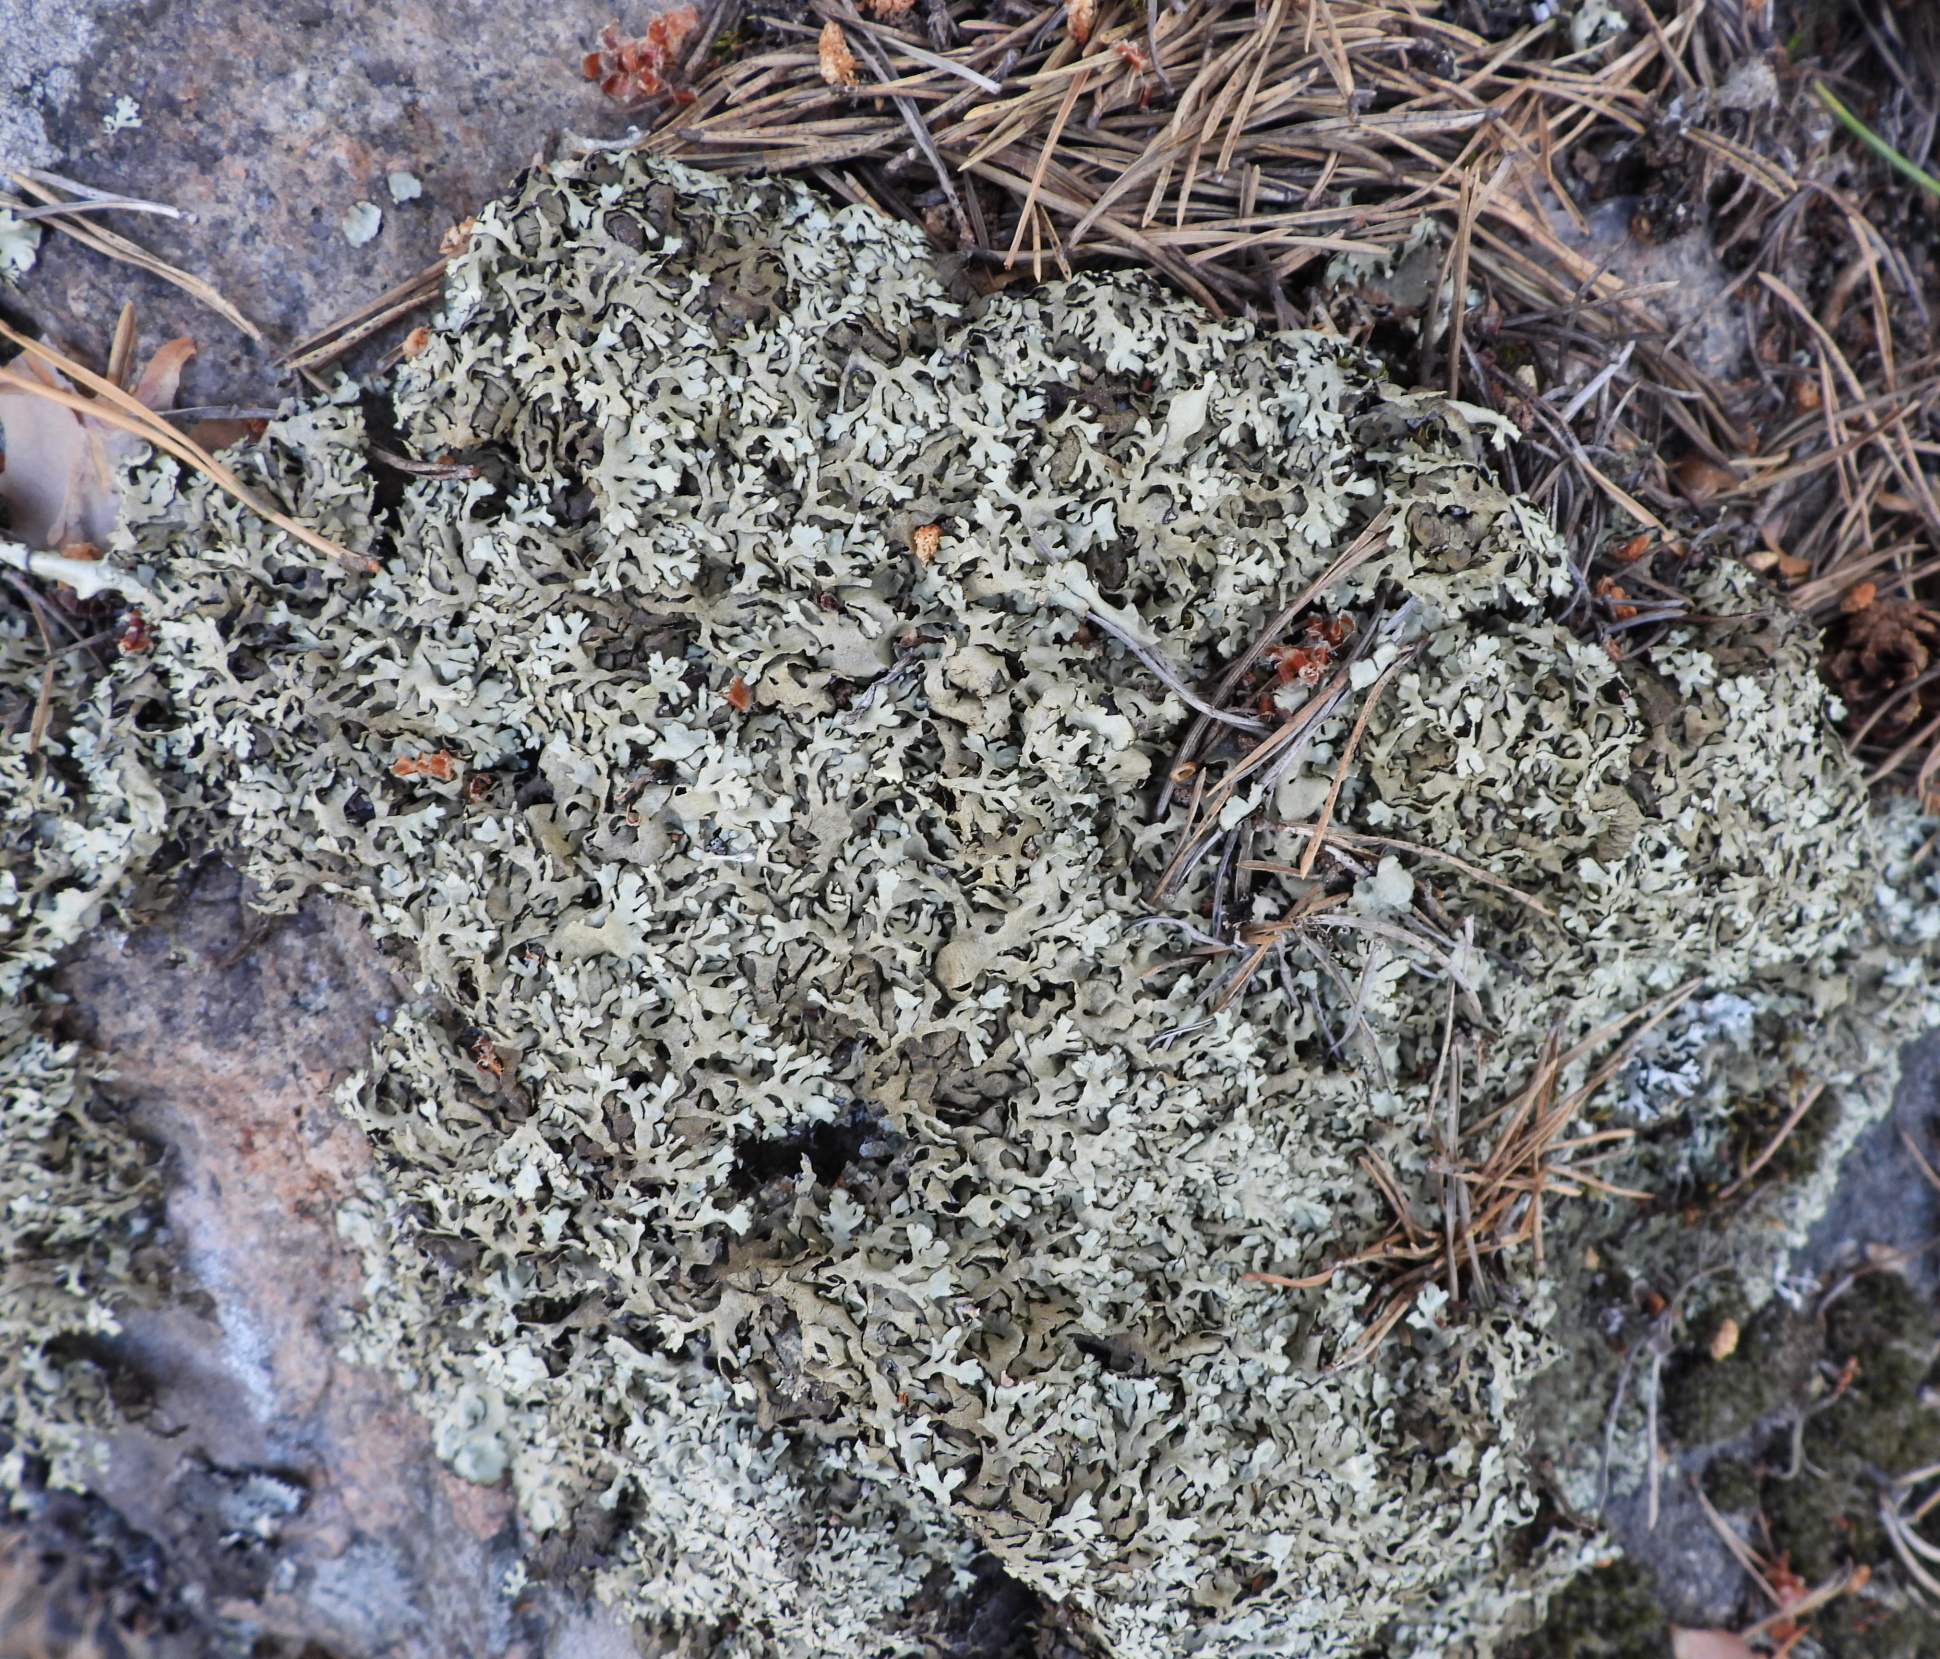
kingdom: Fungi
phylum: Ascomycota
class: Lecanoromycetes
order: Lecanorales
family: Parmeliaceae
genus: Xanthoparmelia
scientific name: Xanthoparmelia stenophylla
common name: Shingled rock shield
